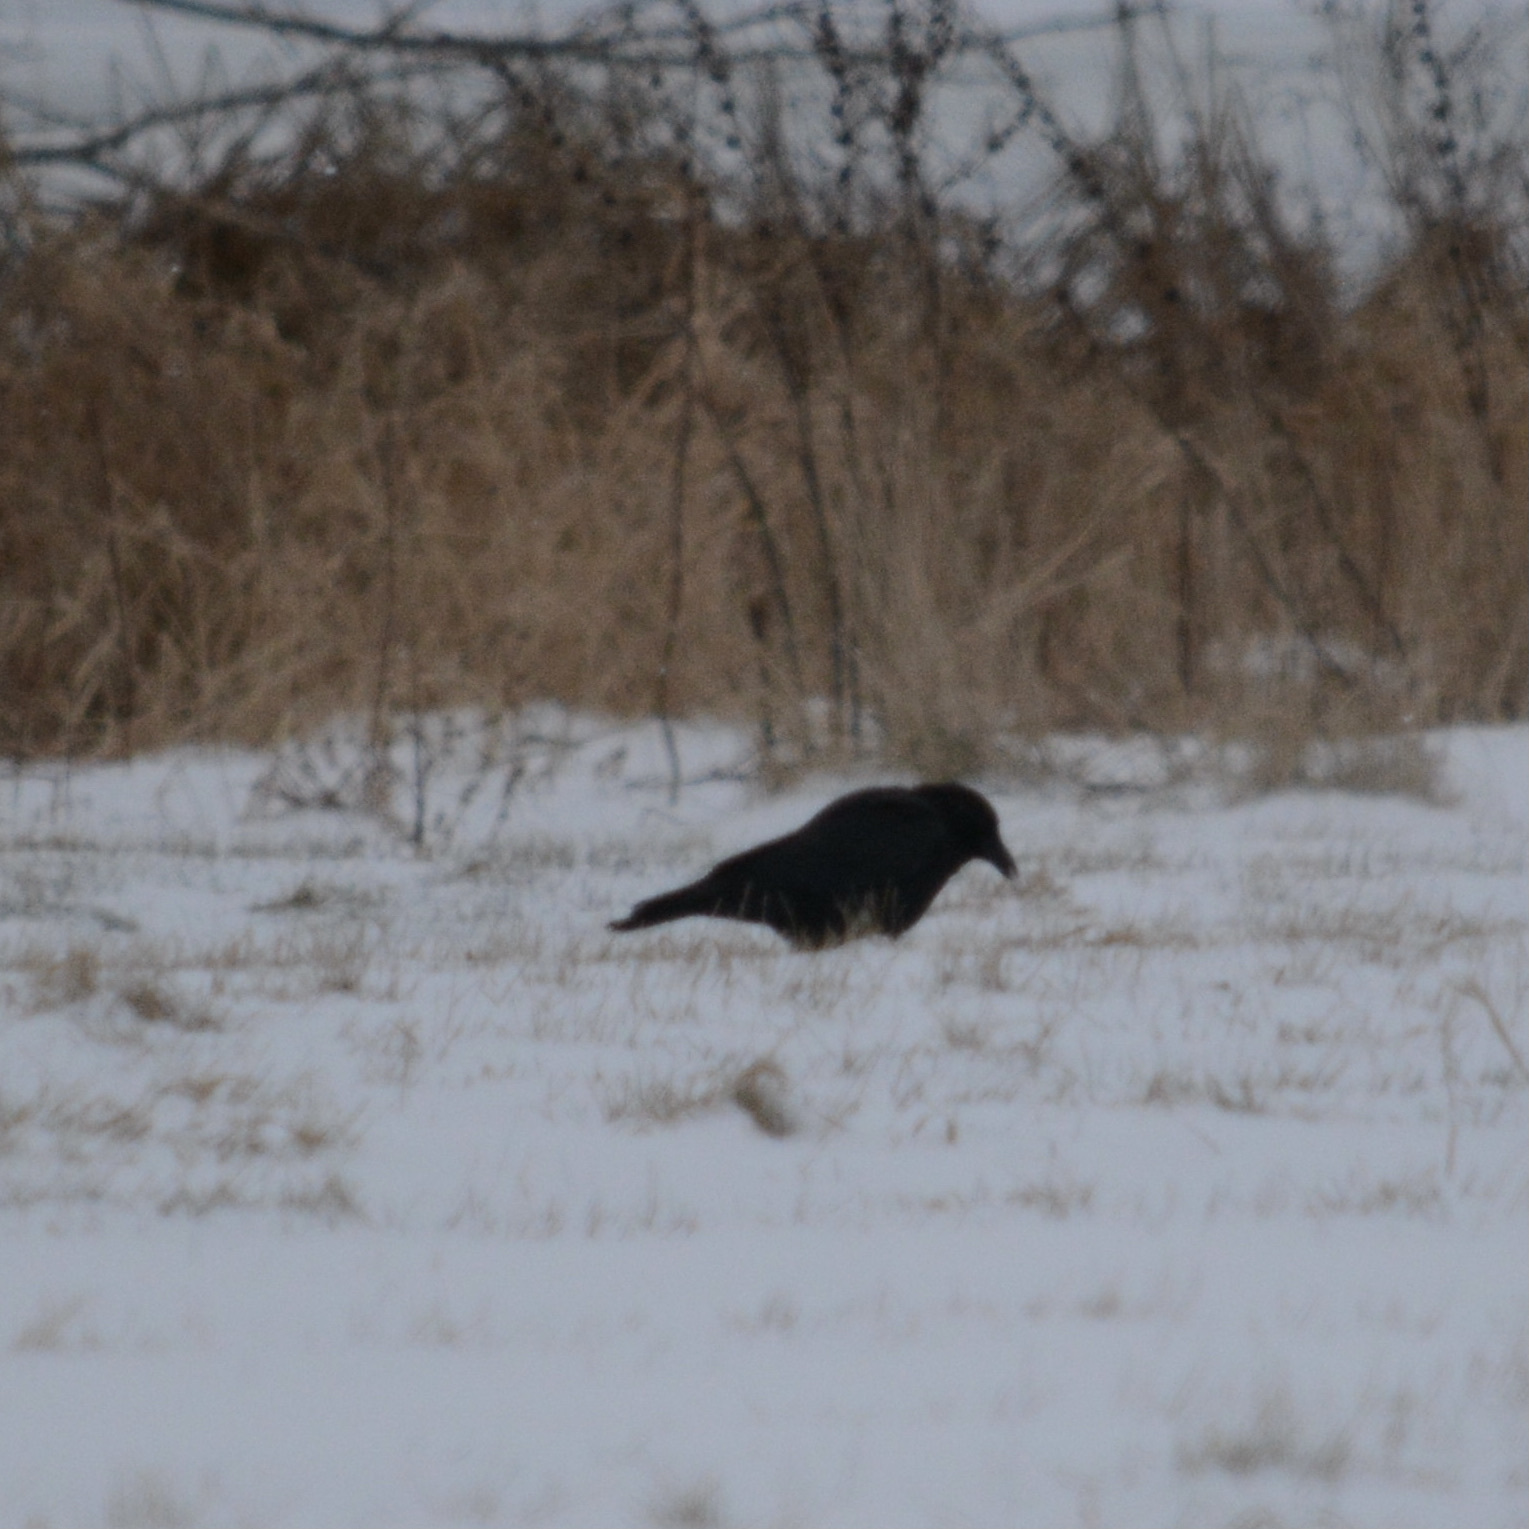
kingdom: Animalia
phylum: Chordata
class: Aves
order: Passeriformes
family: Corvidae
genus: Corvus
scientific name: Corvus brachyrhynchos
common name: American crow
